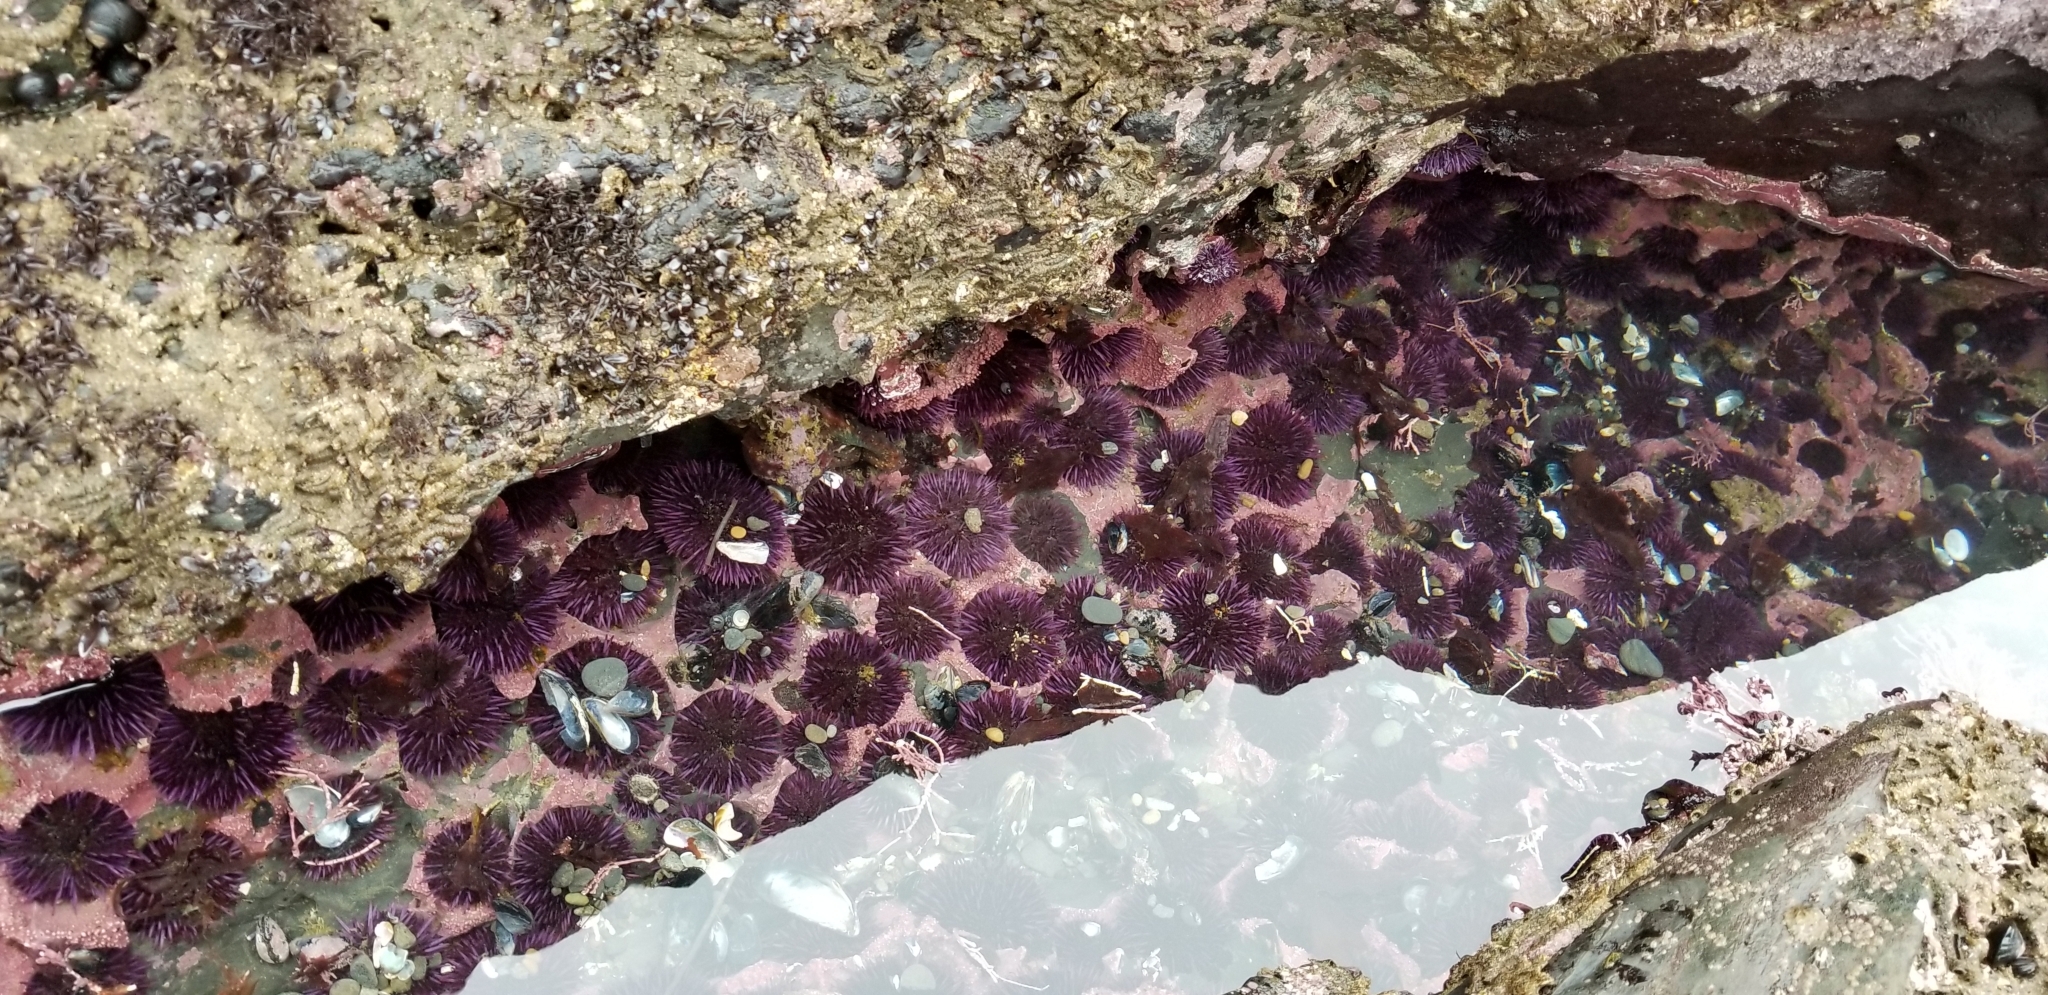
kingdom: Animalia
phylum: Echinodermata
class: Echinoidea
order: Camarodonta
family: Strongylocentrotidae
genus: Strongylocentrotus
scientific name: Strongylocentrotus purpuratus
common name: Purple sea urchin
